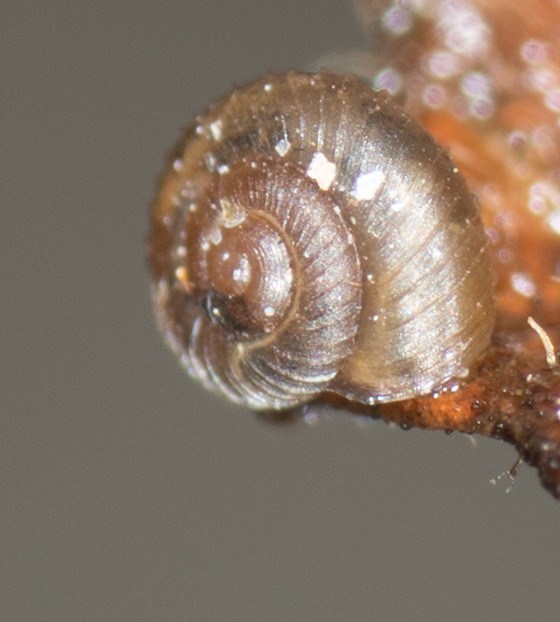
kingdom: Animalia
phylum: Mollusca
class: Gastropoda
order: Stylommatophora
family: Punctidae
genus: Paralaoma
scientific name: Paralaoma servilis
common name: Pinhead spot
